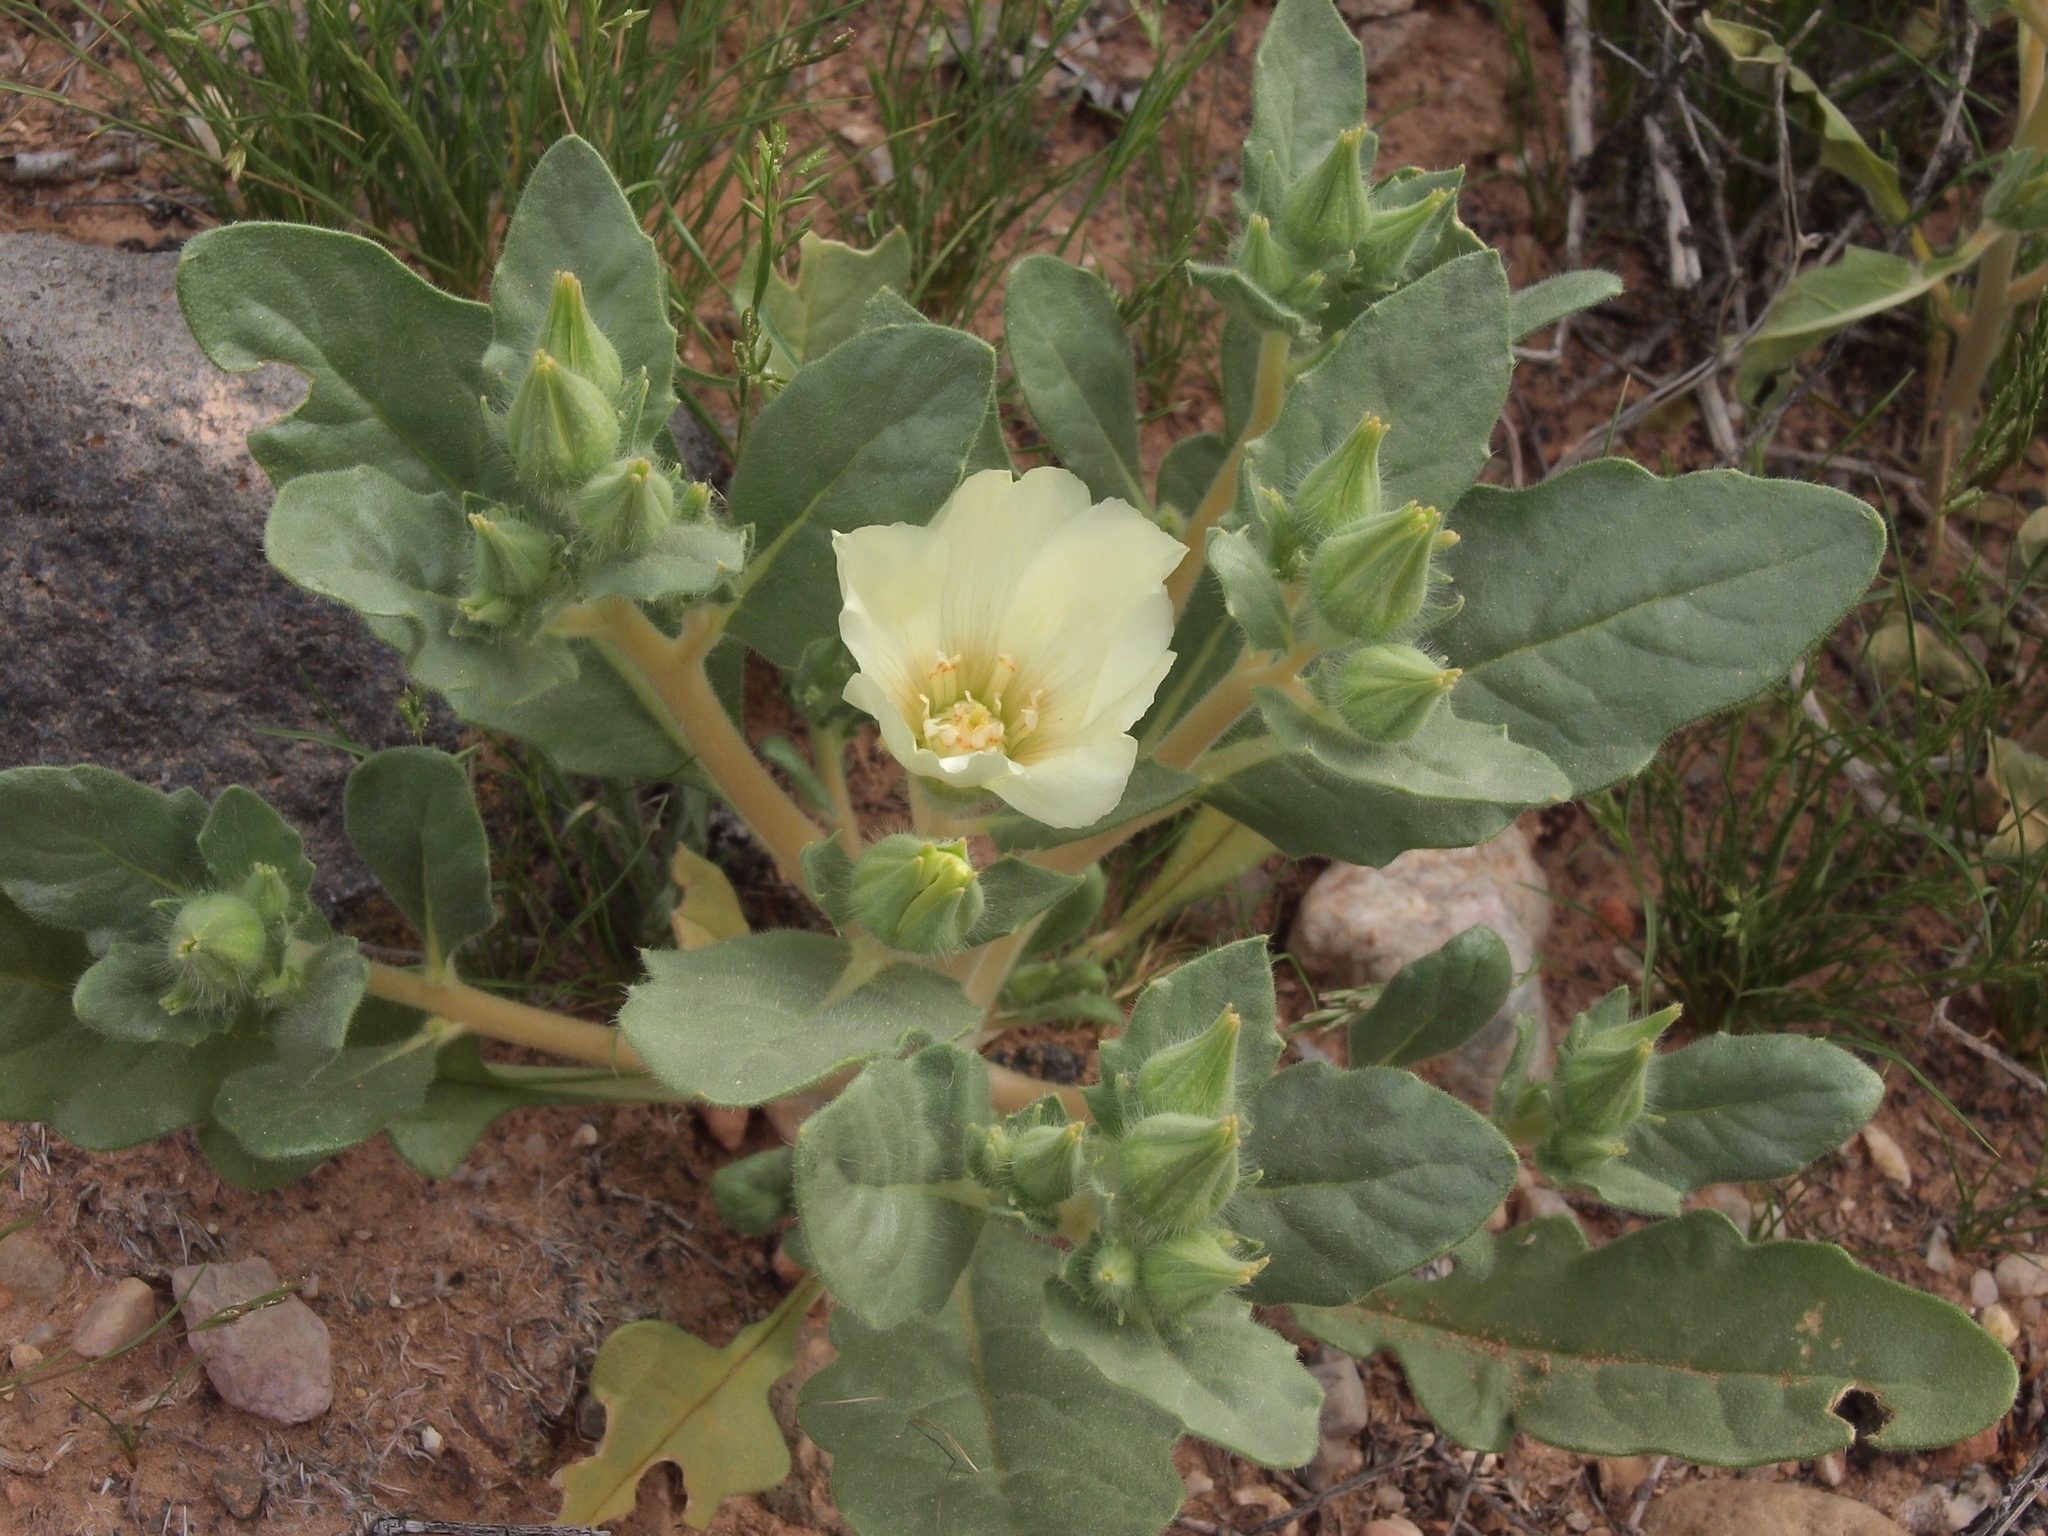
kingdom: Plantae
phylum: Tracheophyta
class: Magnoliopsida
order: Cornales
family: Loasaceae
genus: Mentzelia
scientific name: Mentzelia tricuspis
